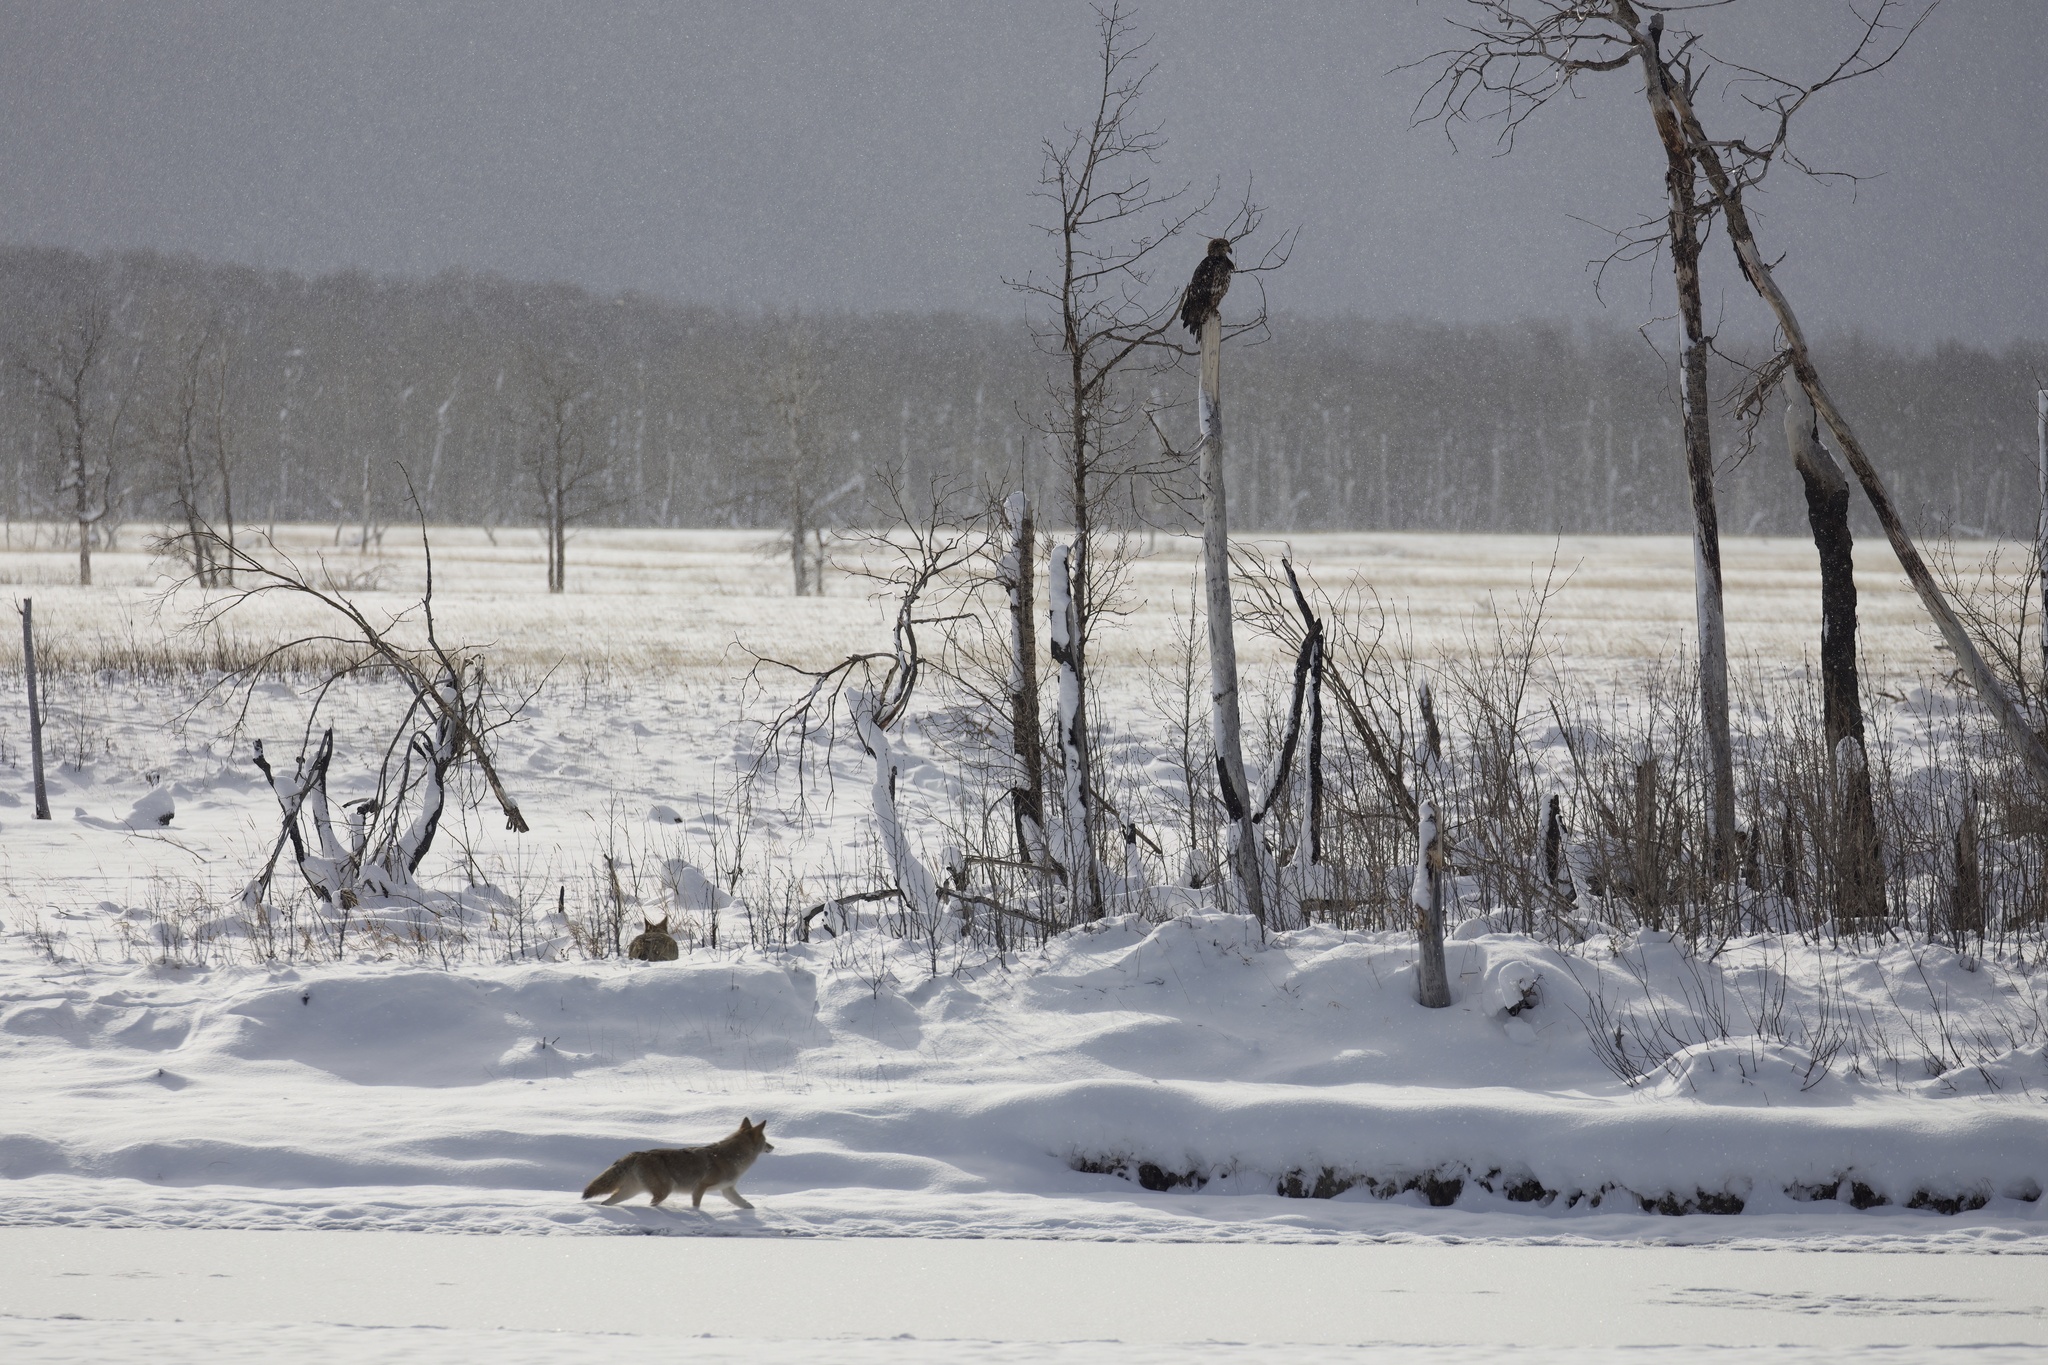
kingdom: Animalia
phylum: Chordata
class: Aves
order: Accipitriformes
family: Accipitridae
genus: Haliaeetus
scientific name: Haliaeetus leucocephalus
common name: Bald eagle
